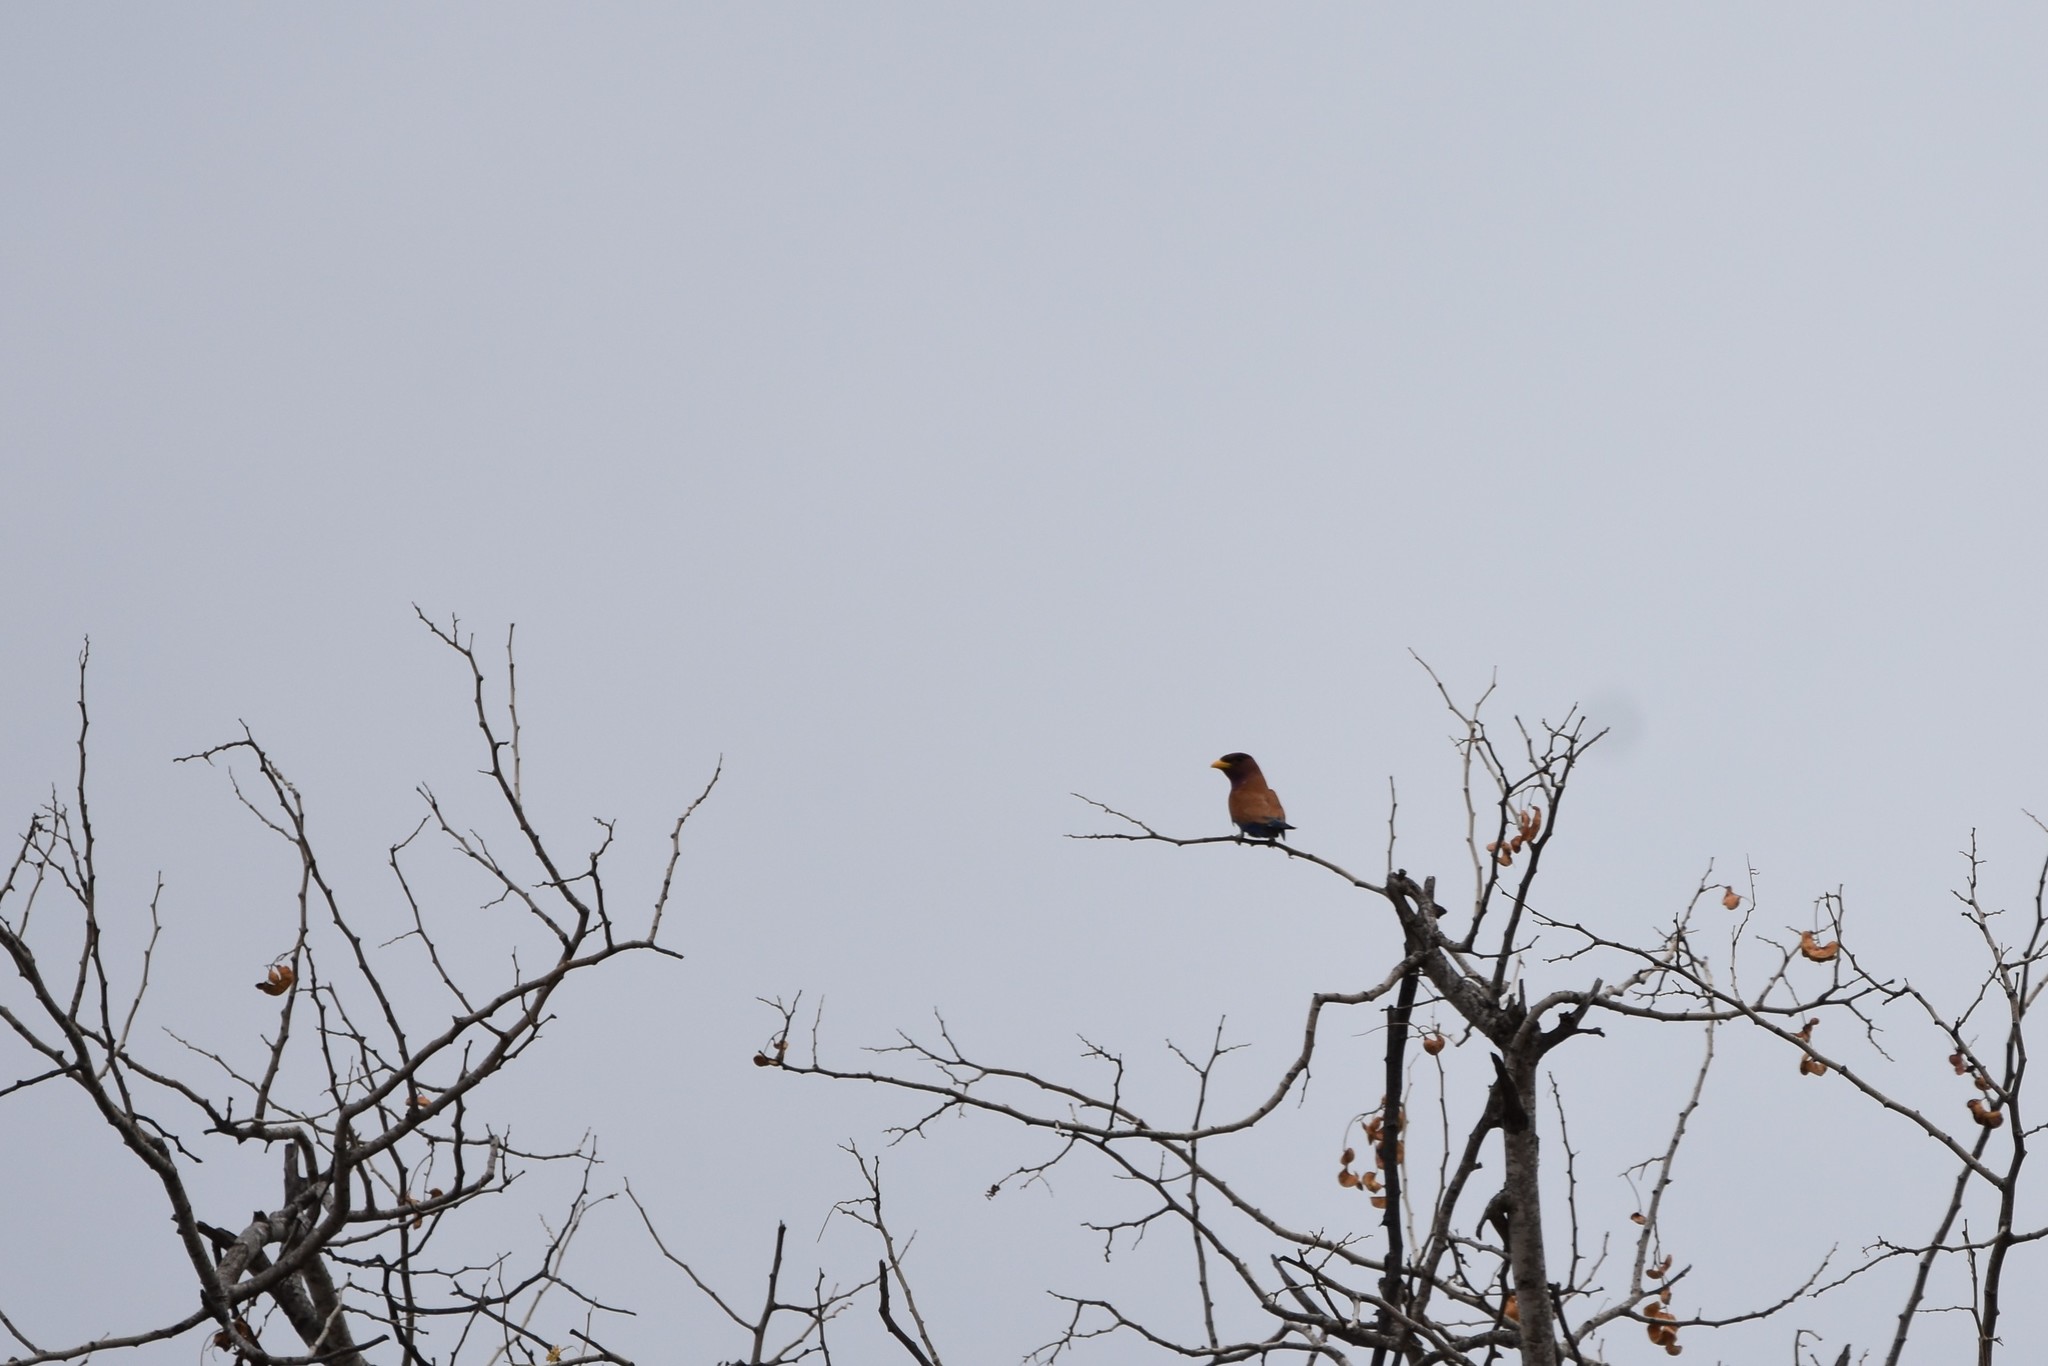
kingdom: Animalia
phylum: Chordata
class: Aves
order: Coraciiformes
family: Coraciidae
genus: Eurystomus
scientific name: Eurystomus glaucurus
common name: Broad-billed roller
